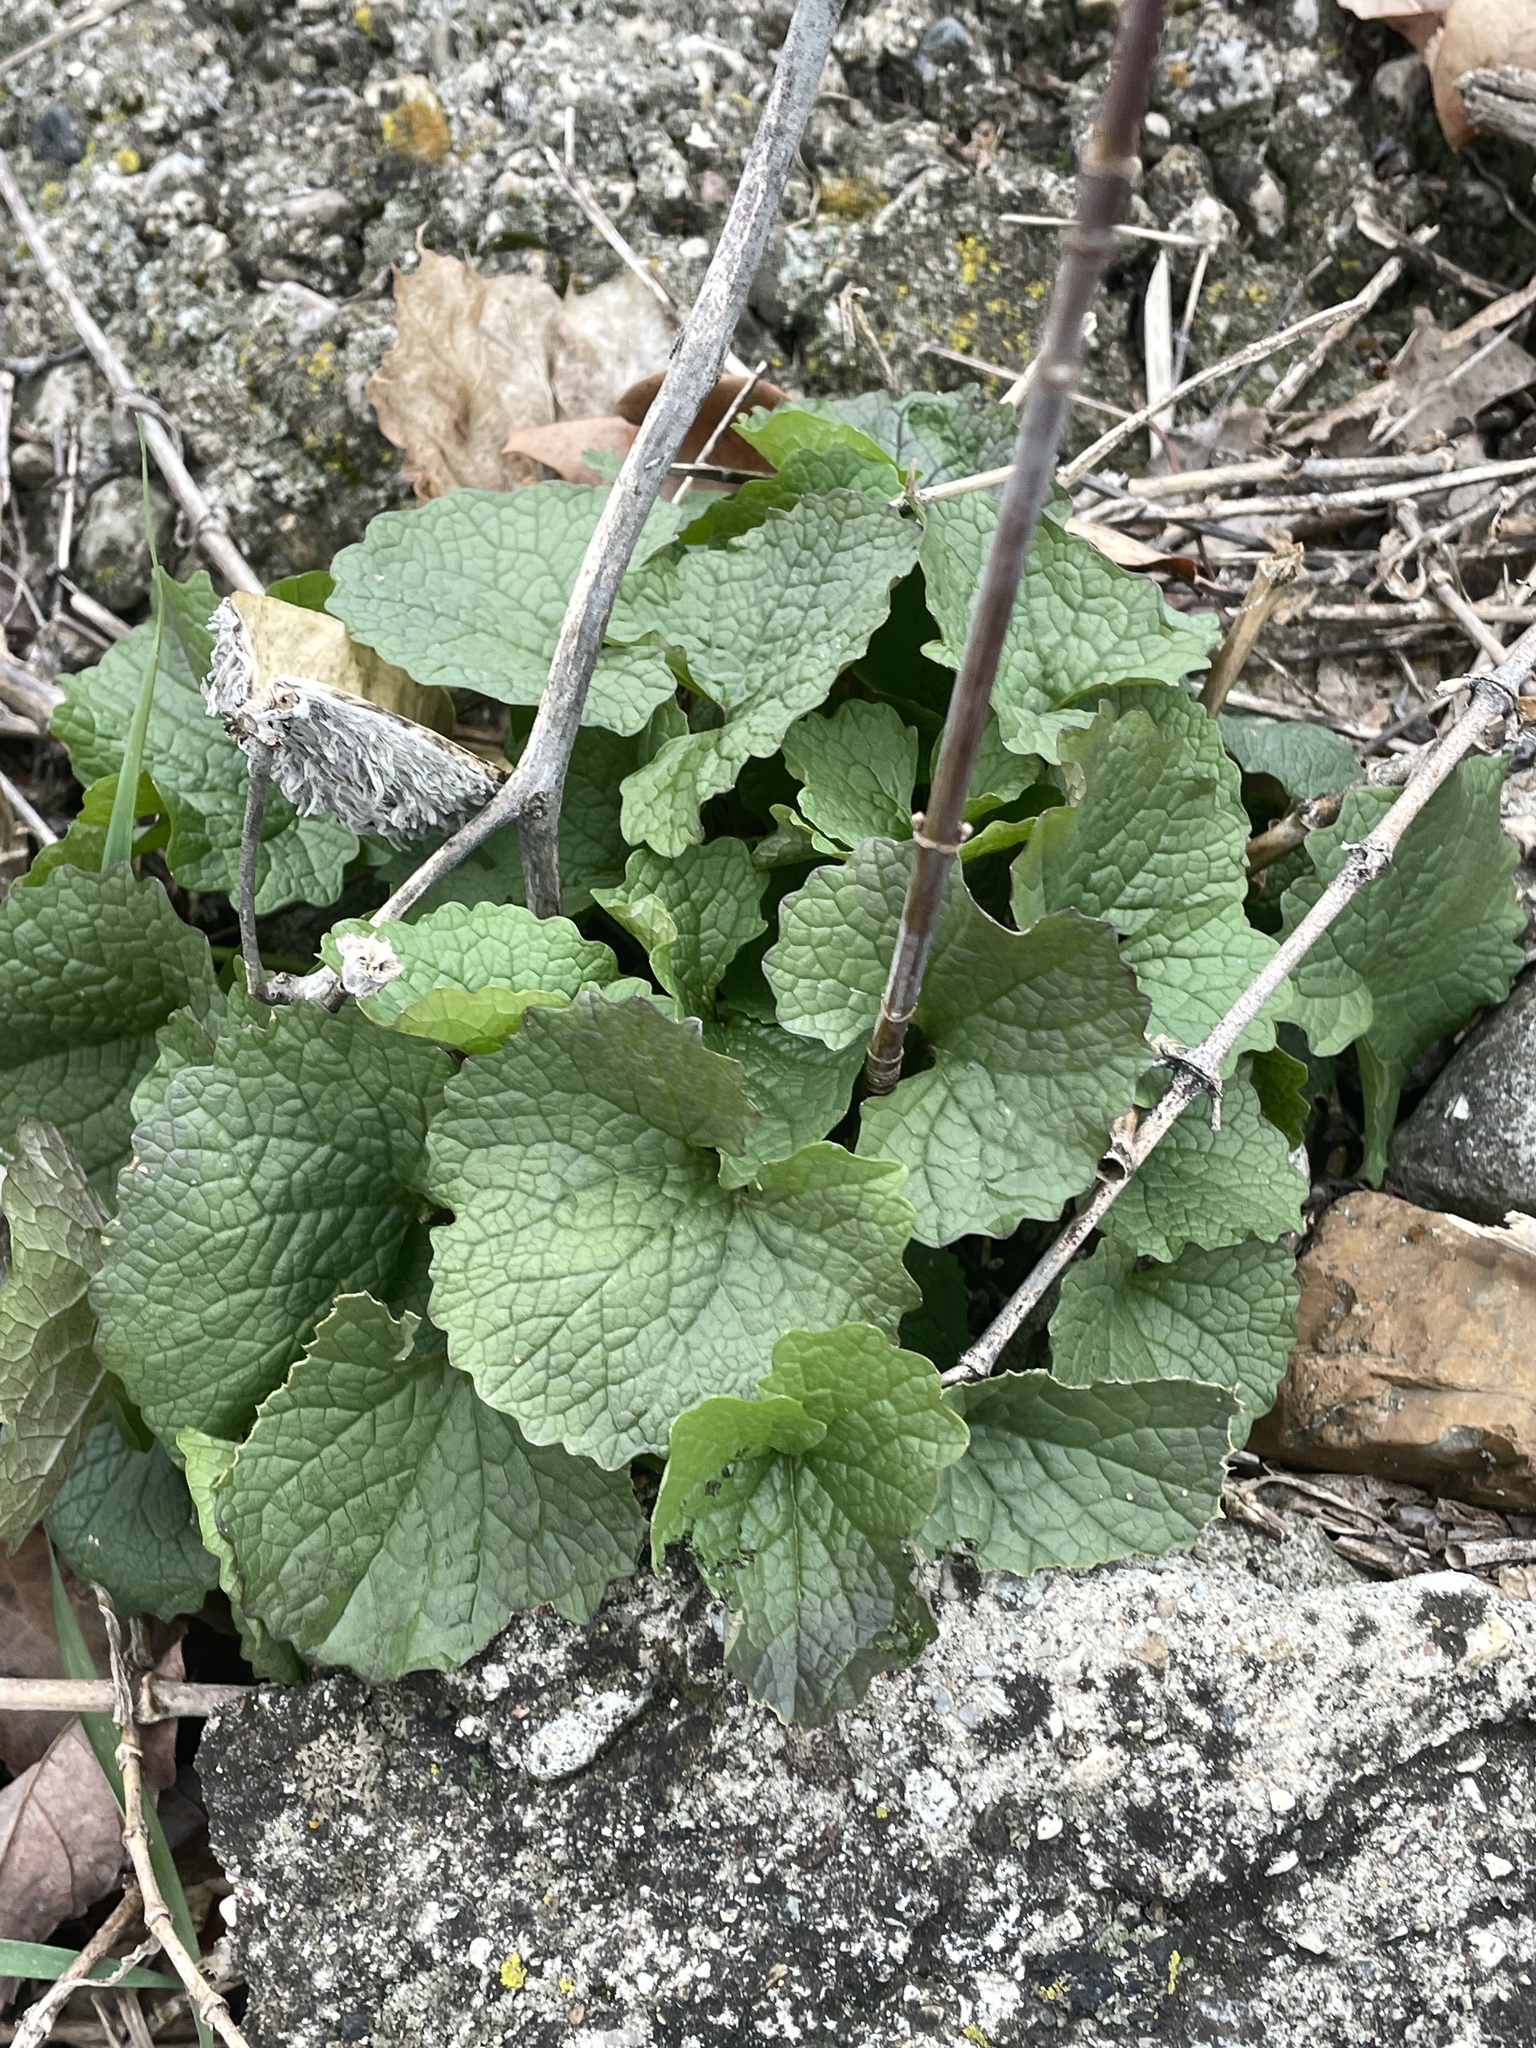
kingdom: Plantae
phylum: Tracheophyta
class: Magnoliopsida
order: Brassicales
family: Brassicaceae
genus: Alliaria
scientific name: Alliaria petiolata
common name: Garlic mustard
